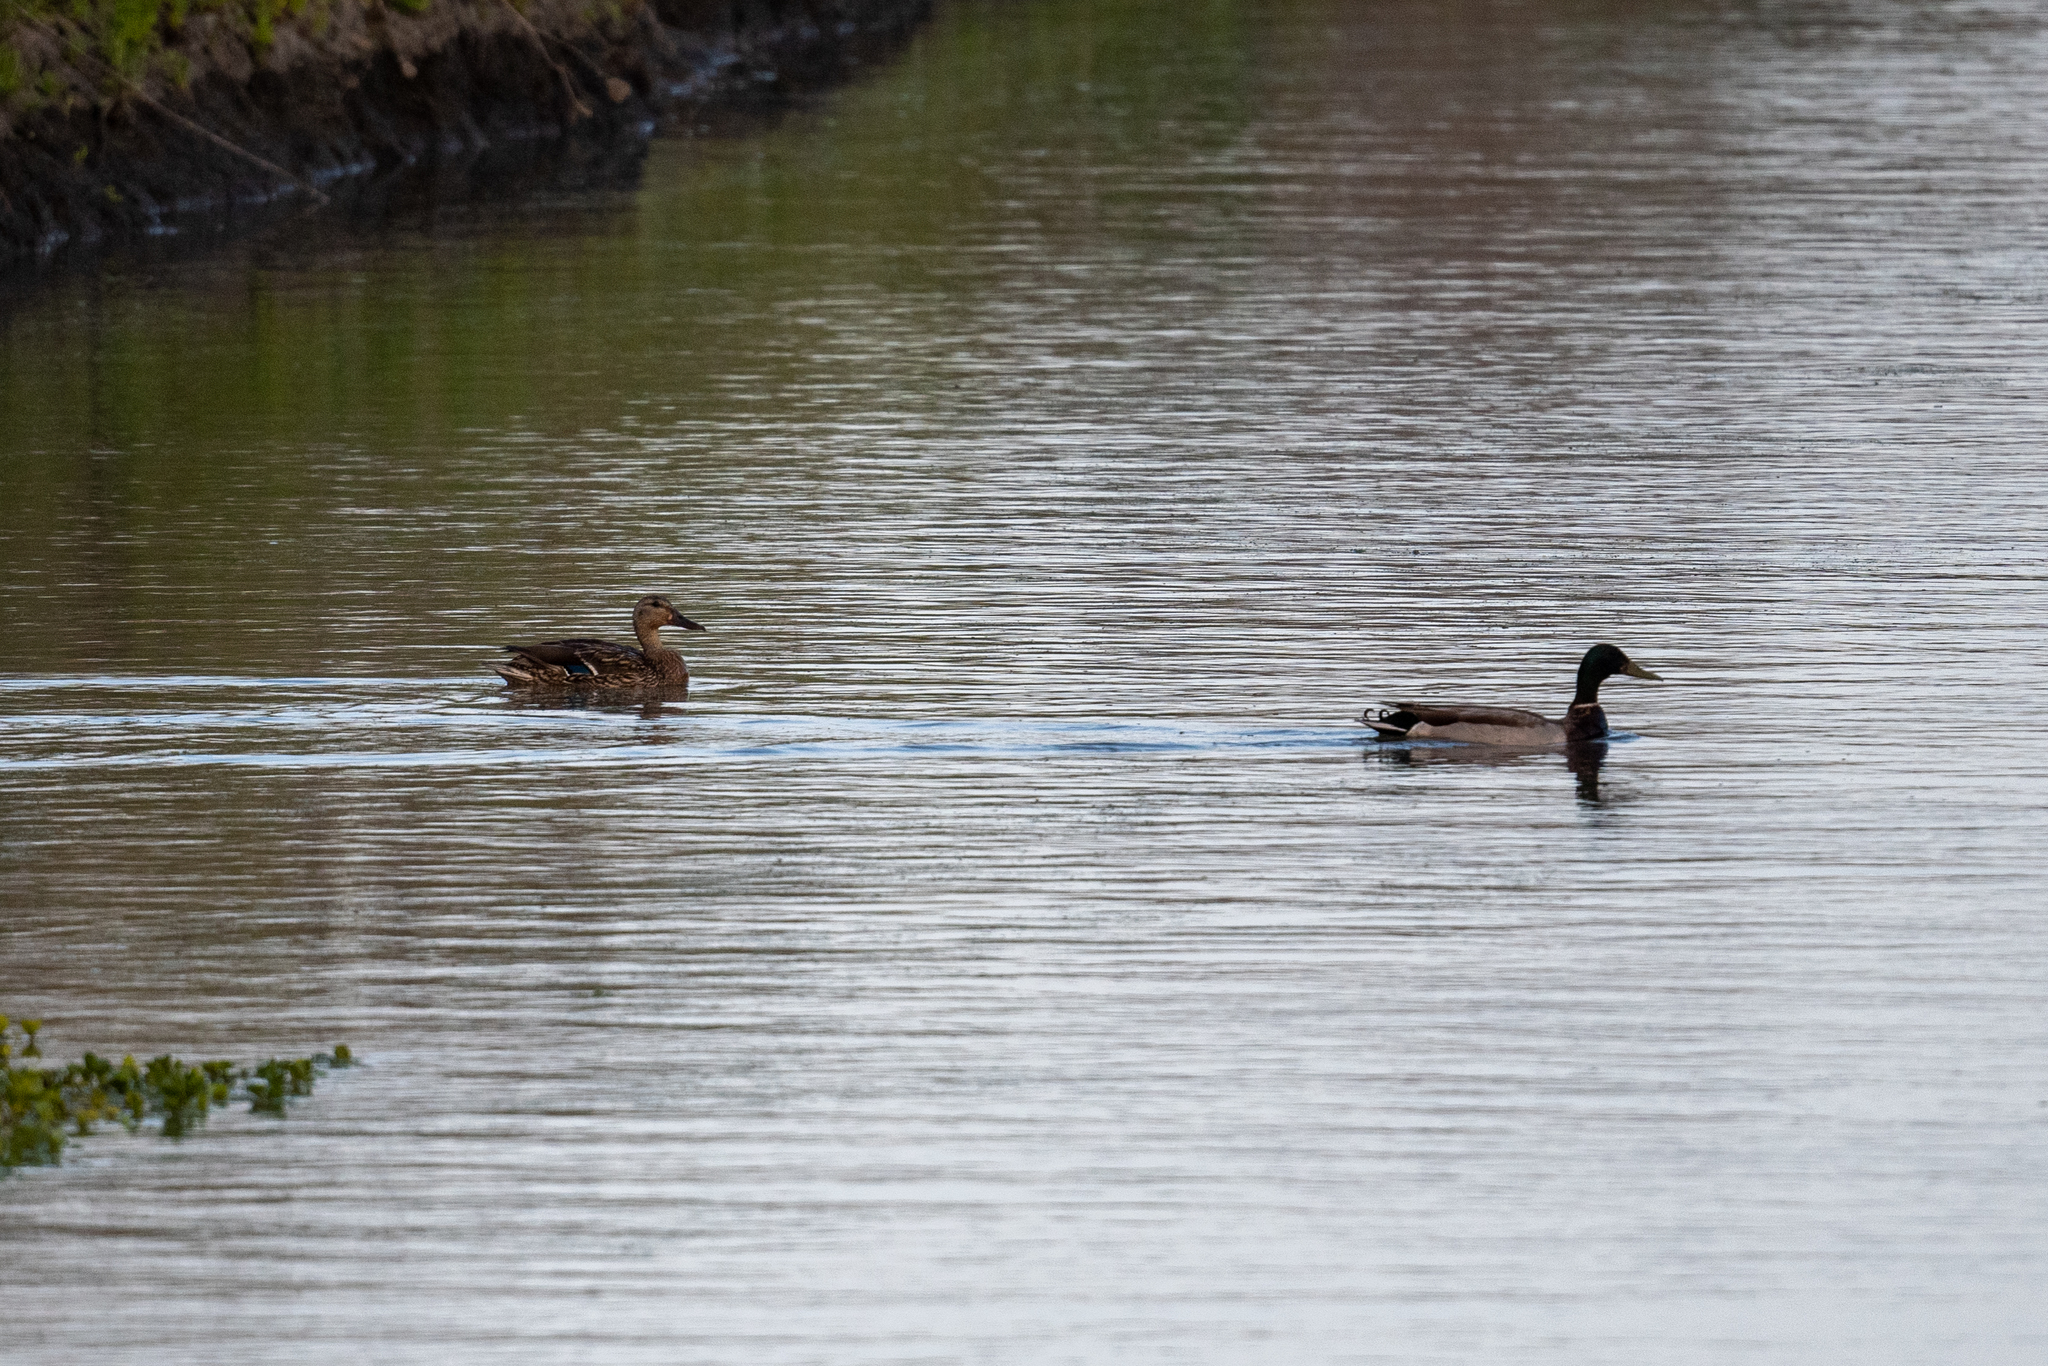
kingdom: Animalia
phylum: Chordata
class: Aves
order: Anseriformes
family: Anatidae
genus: Anas
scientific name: Anas platyrhynchos
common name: Mallard
